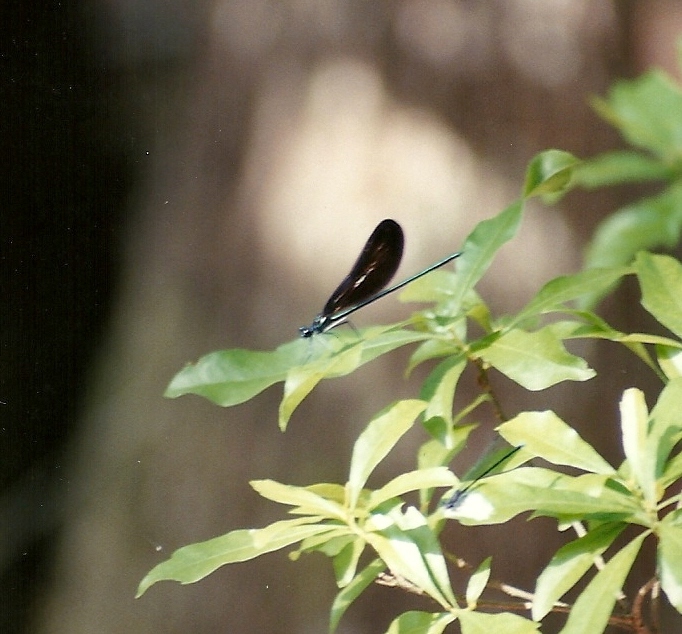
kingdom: Animalia
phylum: Arthropoda
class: Insecta
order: Odonata
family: Calopterygidae
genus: Calopteryx
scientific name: Calopteryx maculata
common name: Ebony jewelwing
